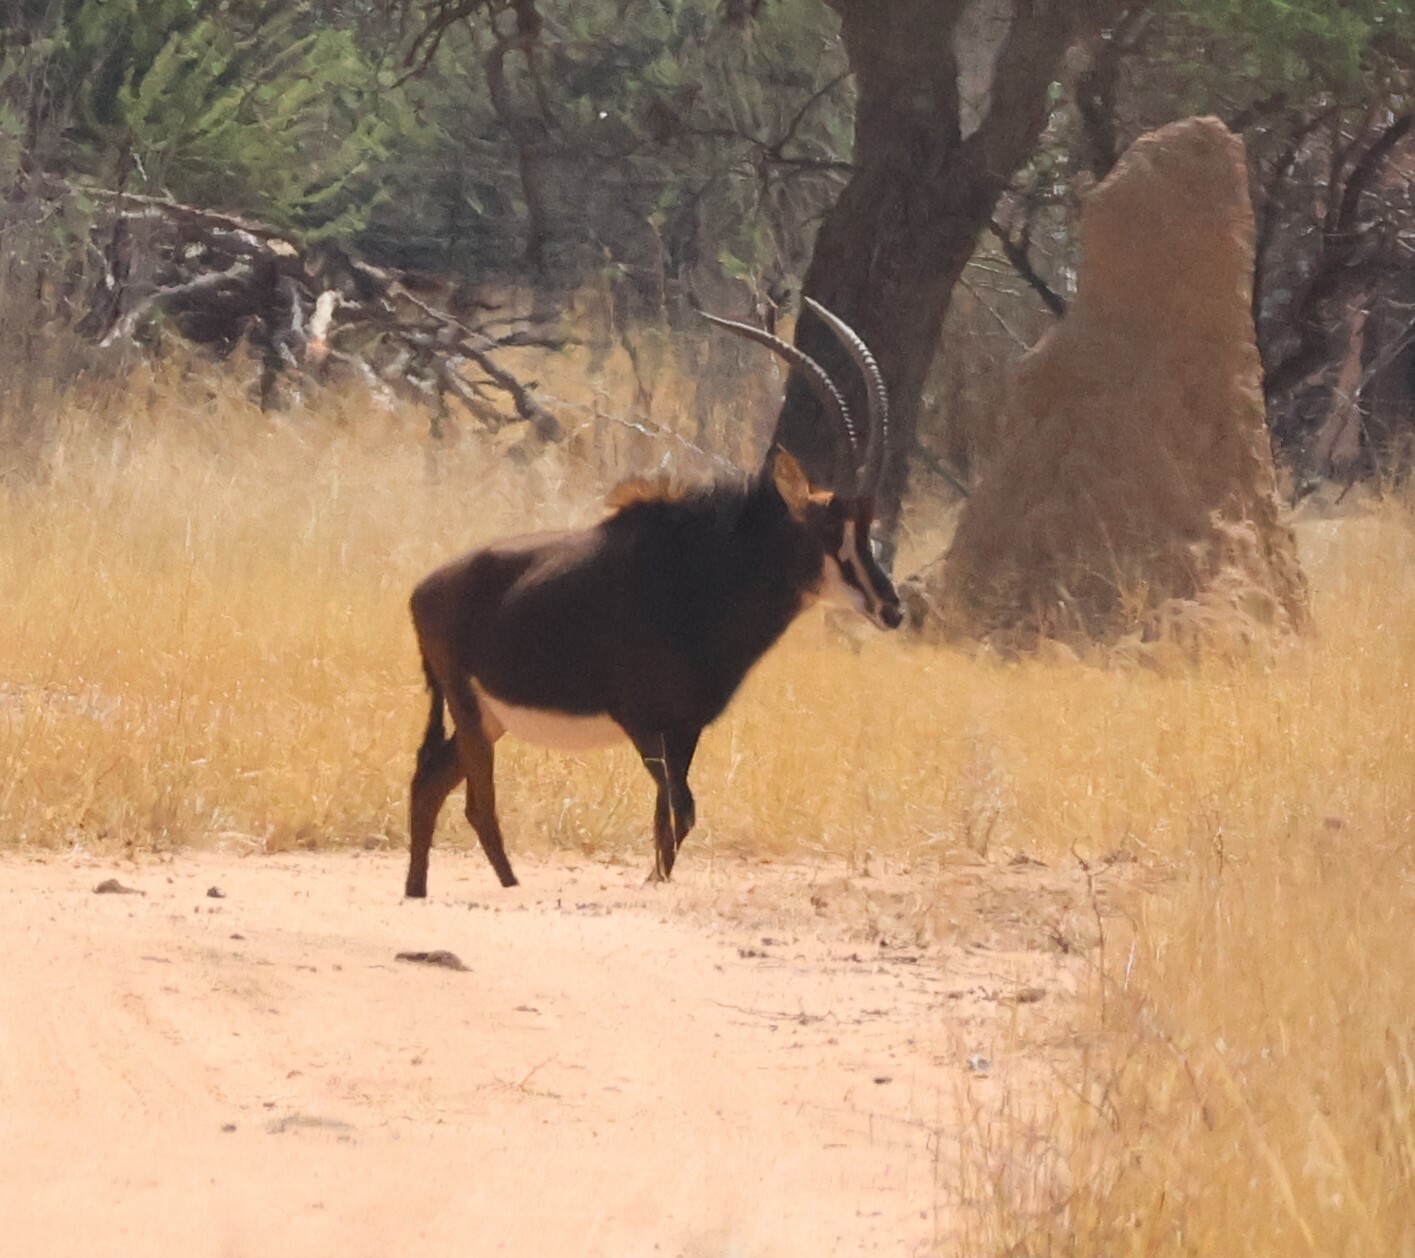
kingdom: Animalia
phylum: Chordata
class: Mammalia
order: Artiodactyla
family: Bovidae
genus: Hippotragus
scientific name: Hippotragus niger
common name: Sable antelope
